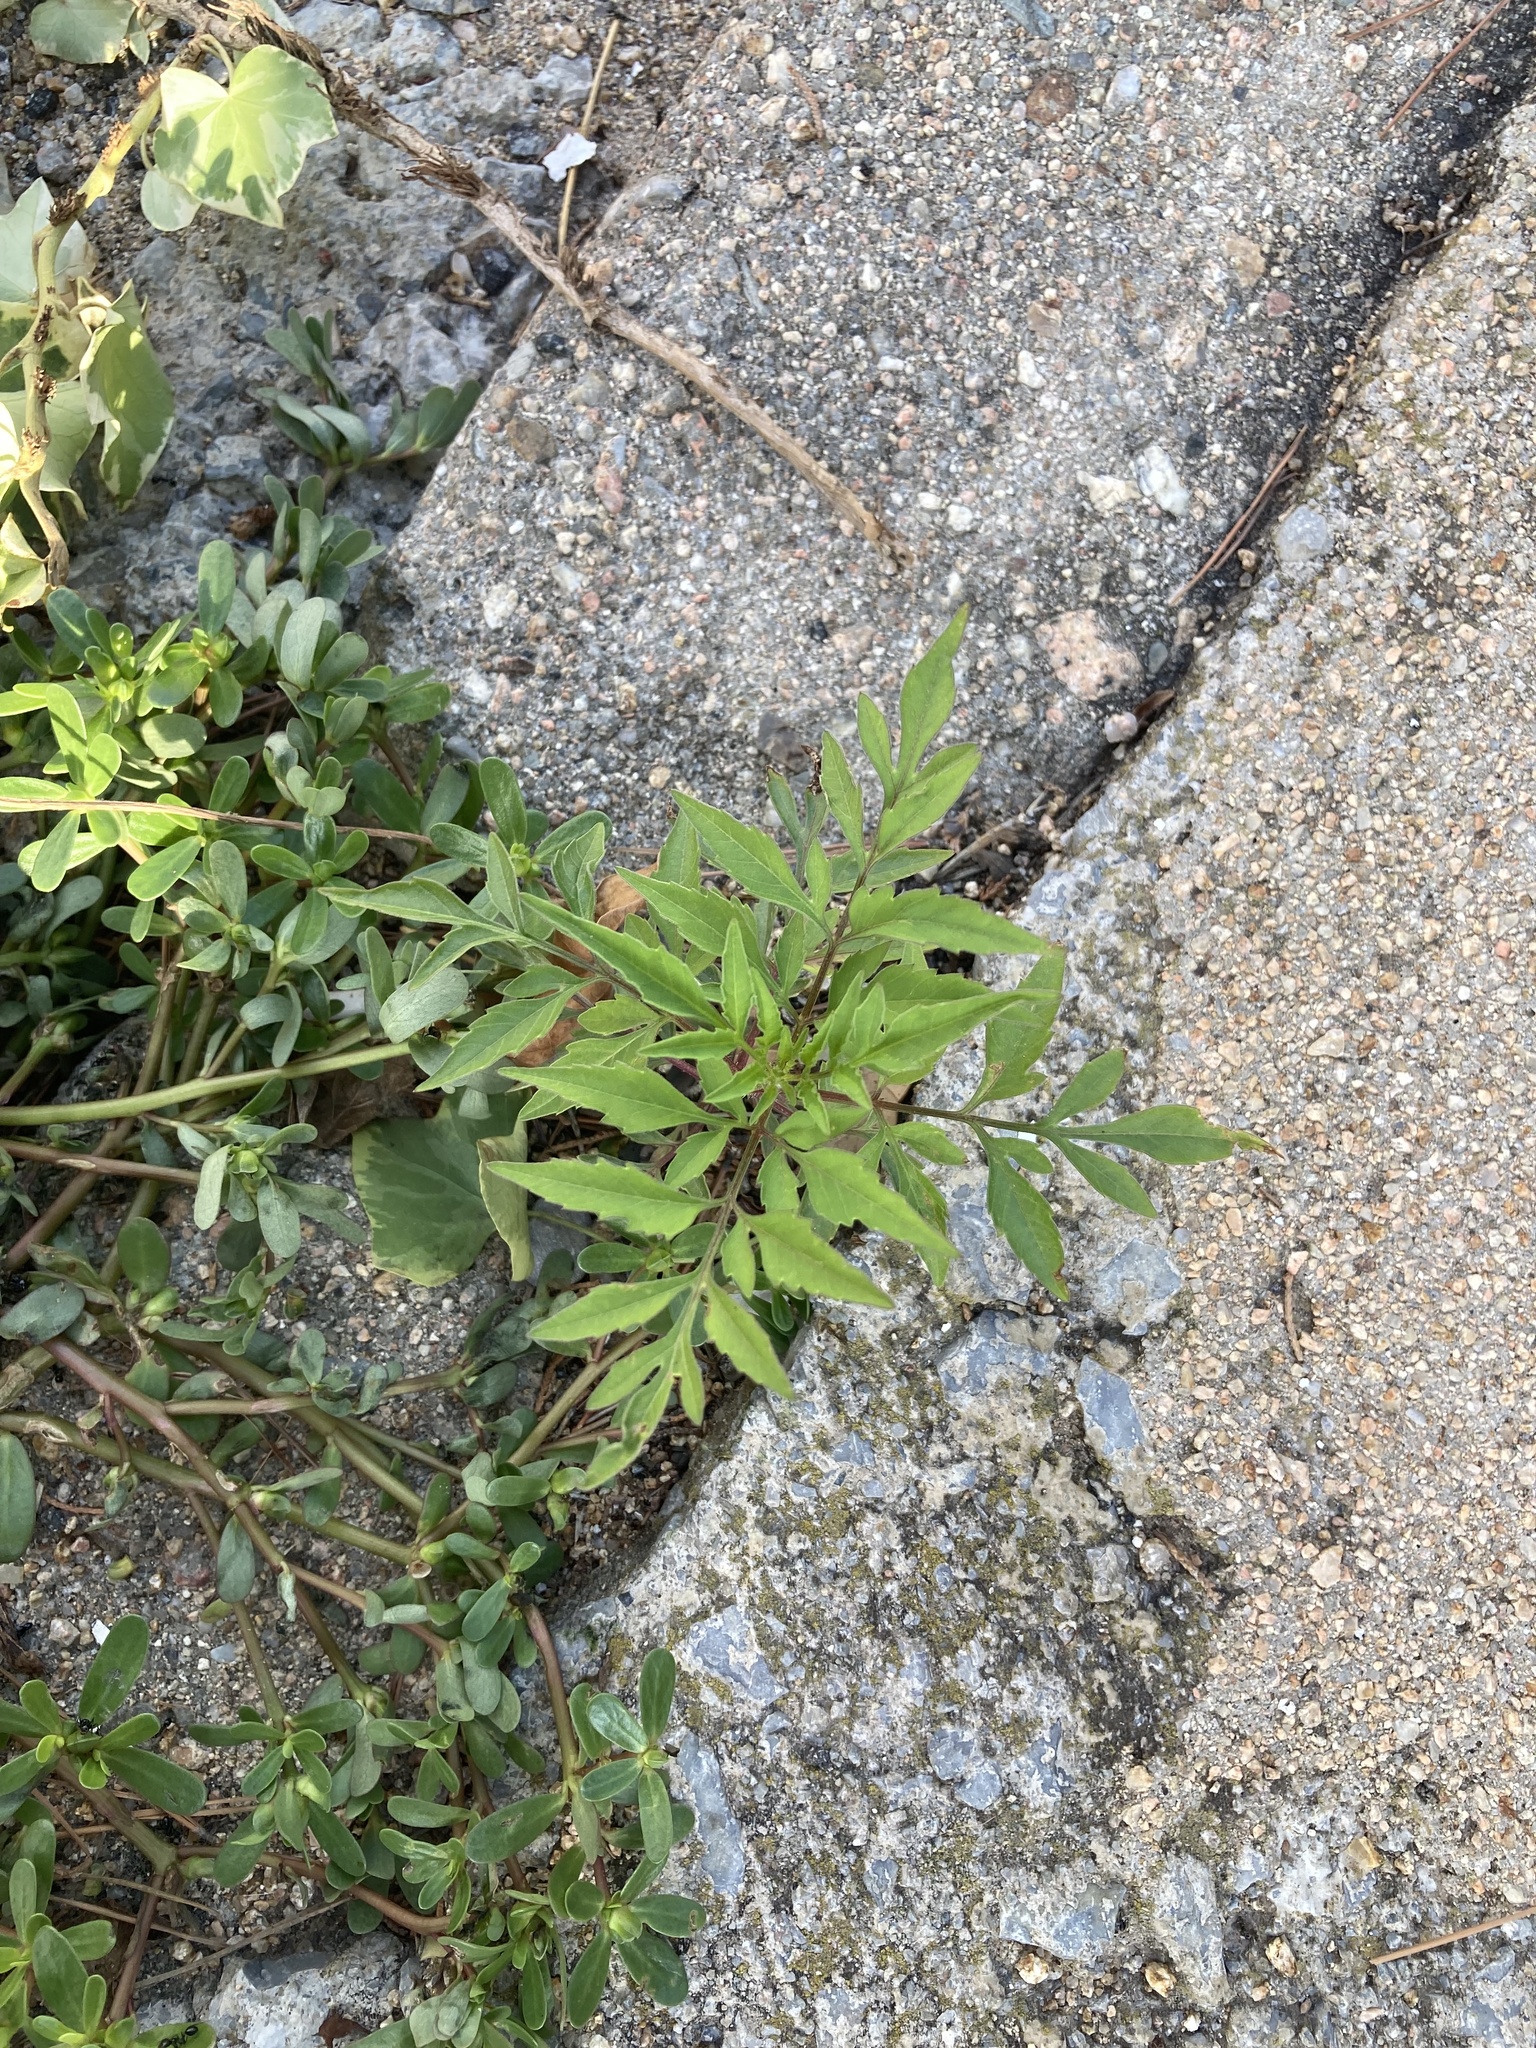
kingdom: Plantae
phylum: Tracheophyta
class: Magnoliopsida
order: Asterales
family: Asteraceae
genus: Bidens
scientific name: Bidens subalternans
